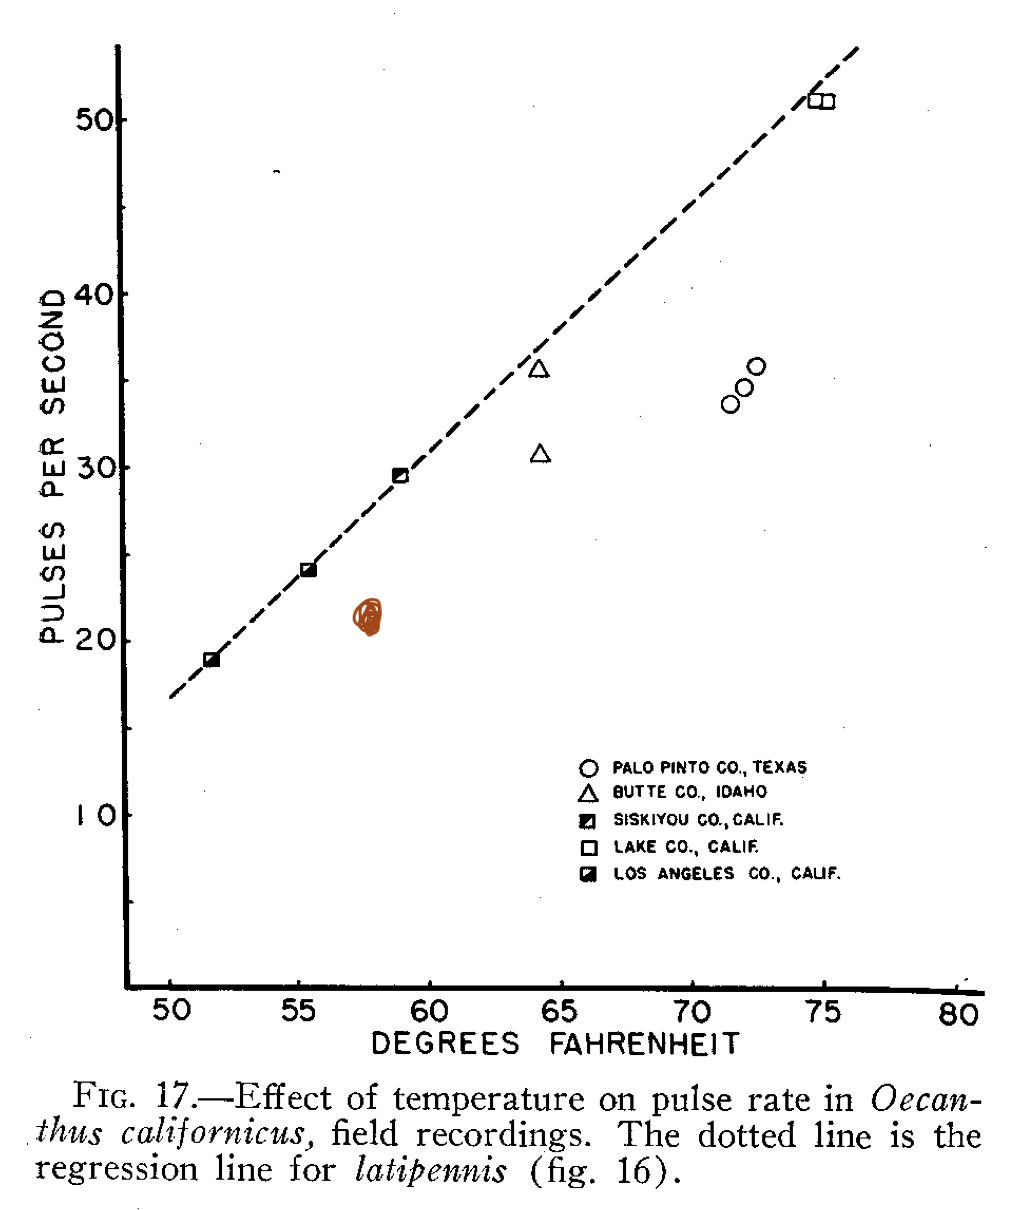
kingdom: Animalia
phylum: Arthropoda
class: Insecta
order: Orthoptera
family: Gryllidae
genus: Oecanthus
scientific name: Oecanthus californicus
